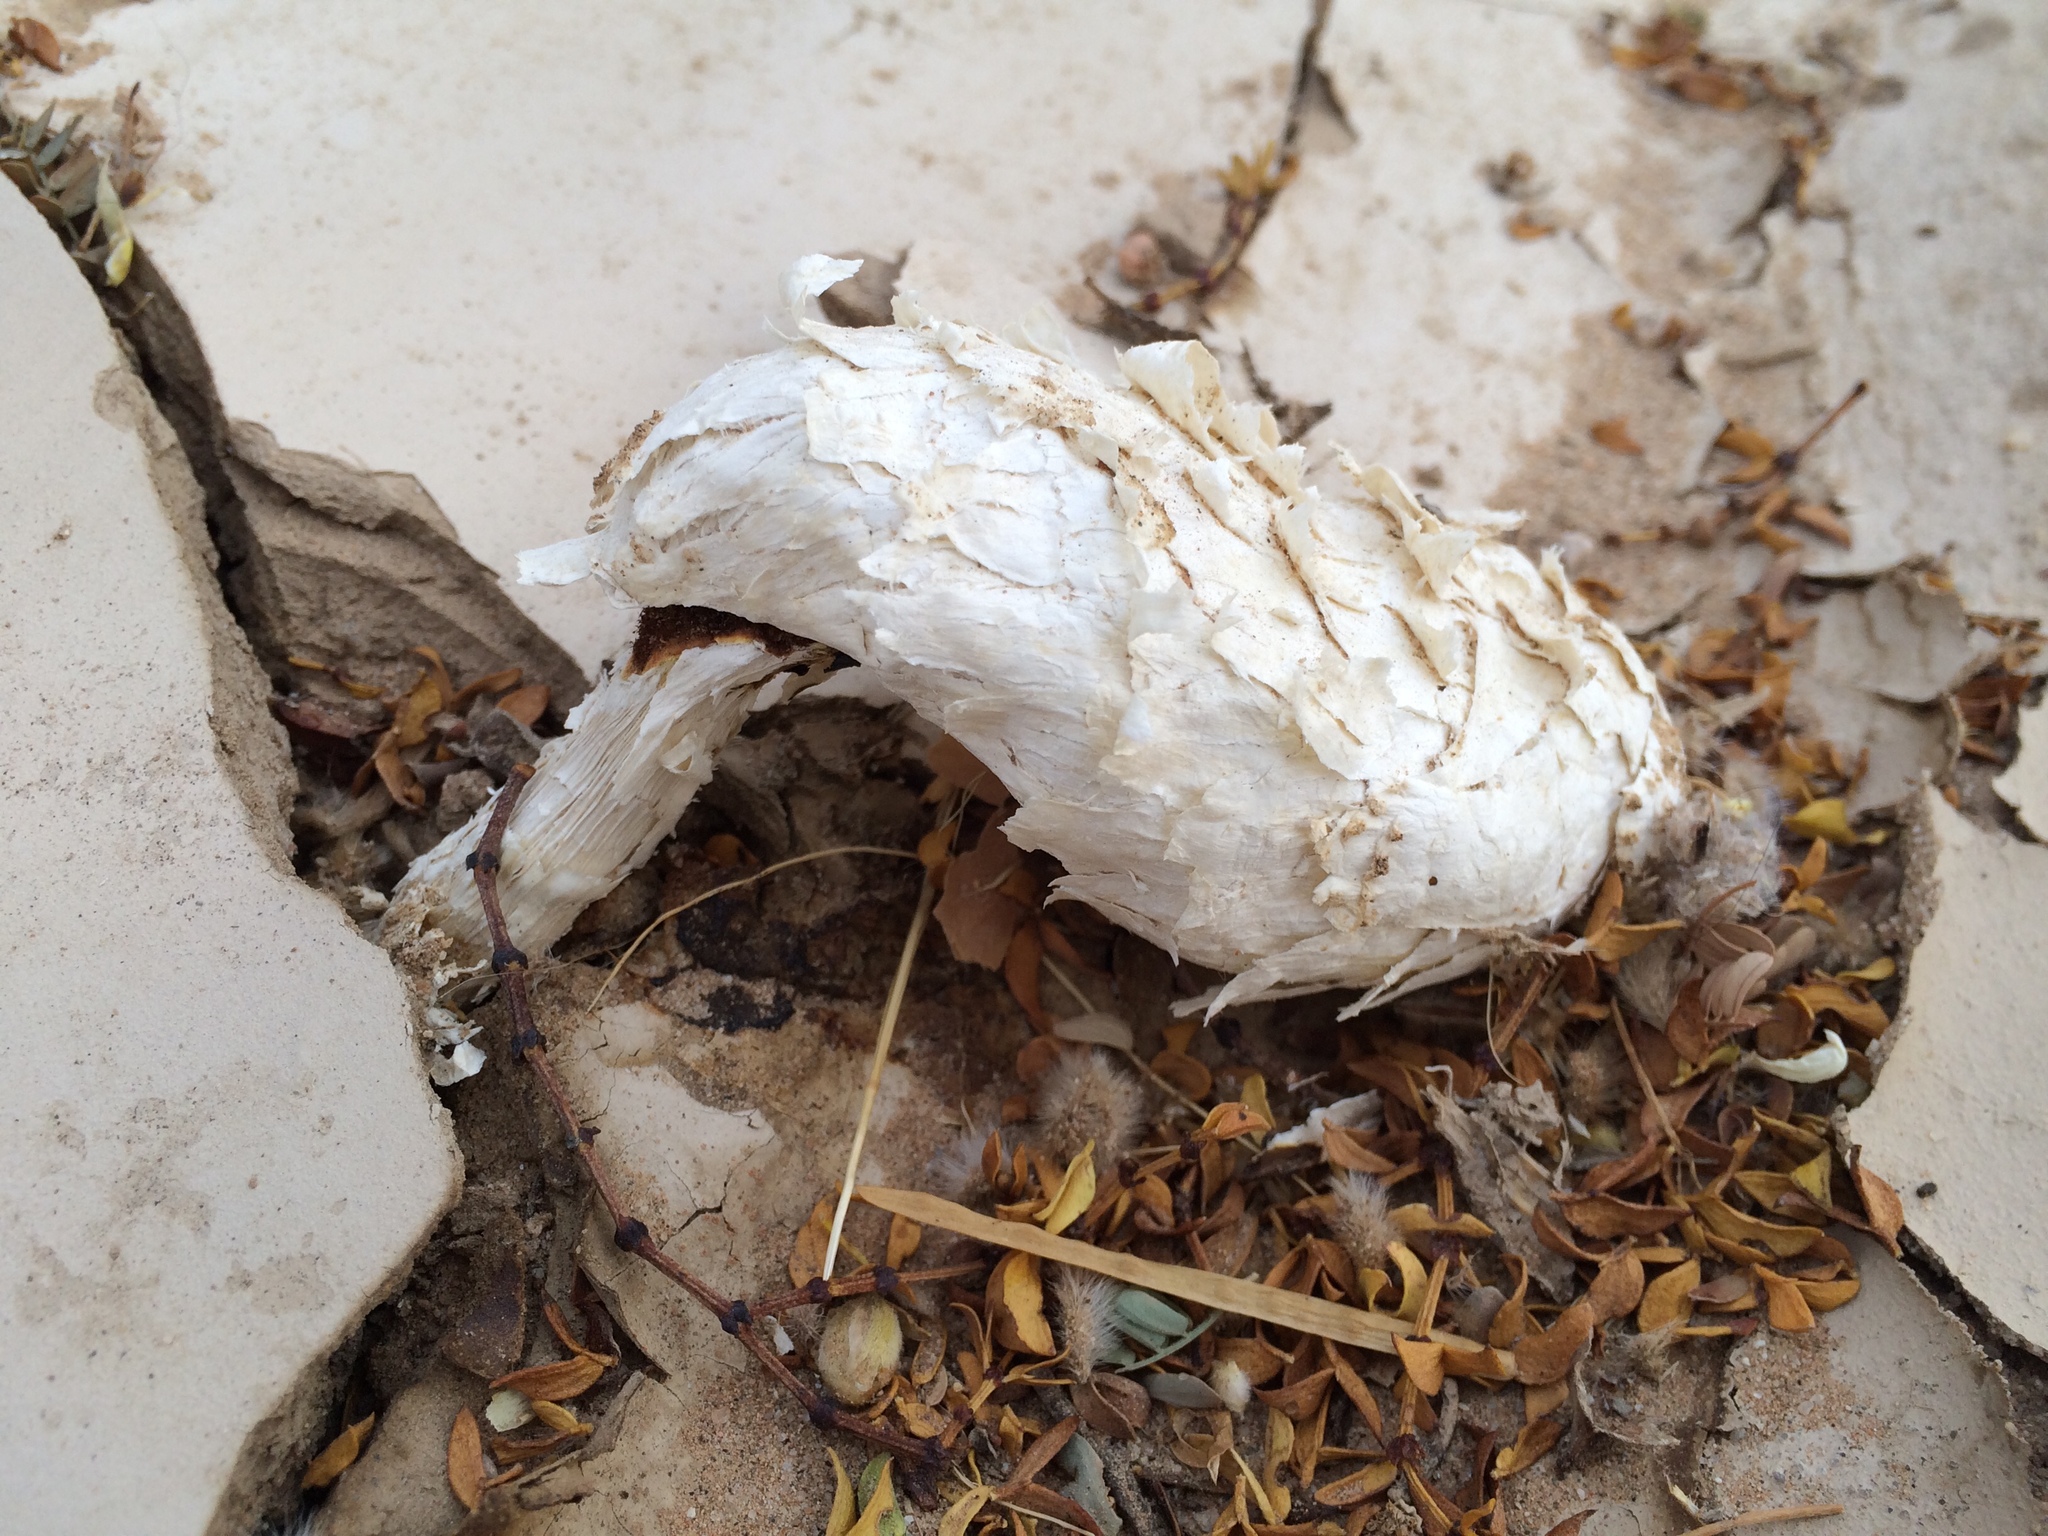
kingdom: Fungi
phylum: Basidiomycota
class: Agaricomycetes
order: Agaricales
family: Agaricaceae
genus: Podaxis
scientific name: Podaxis pistillaris
